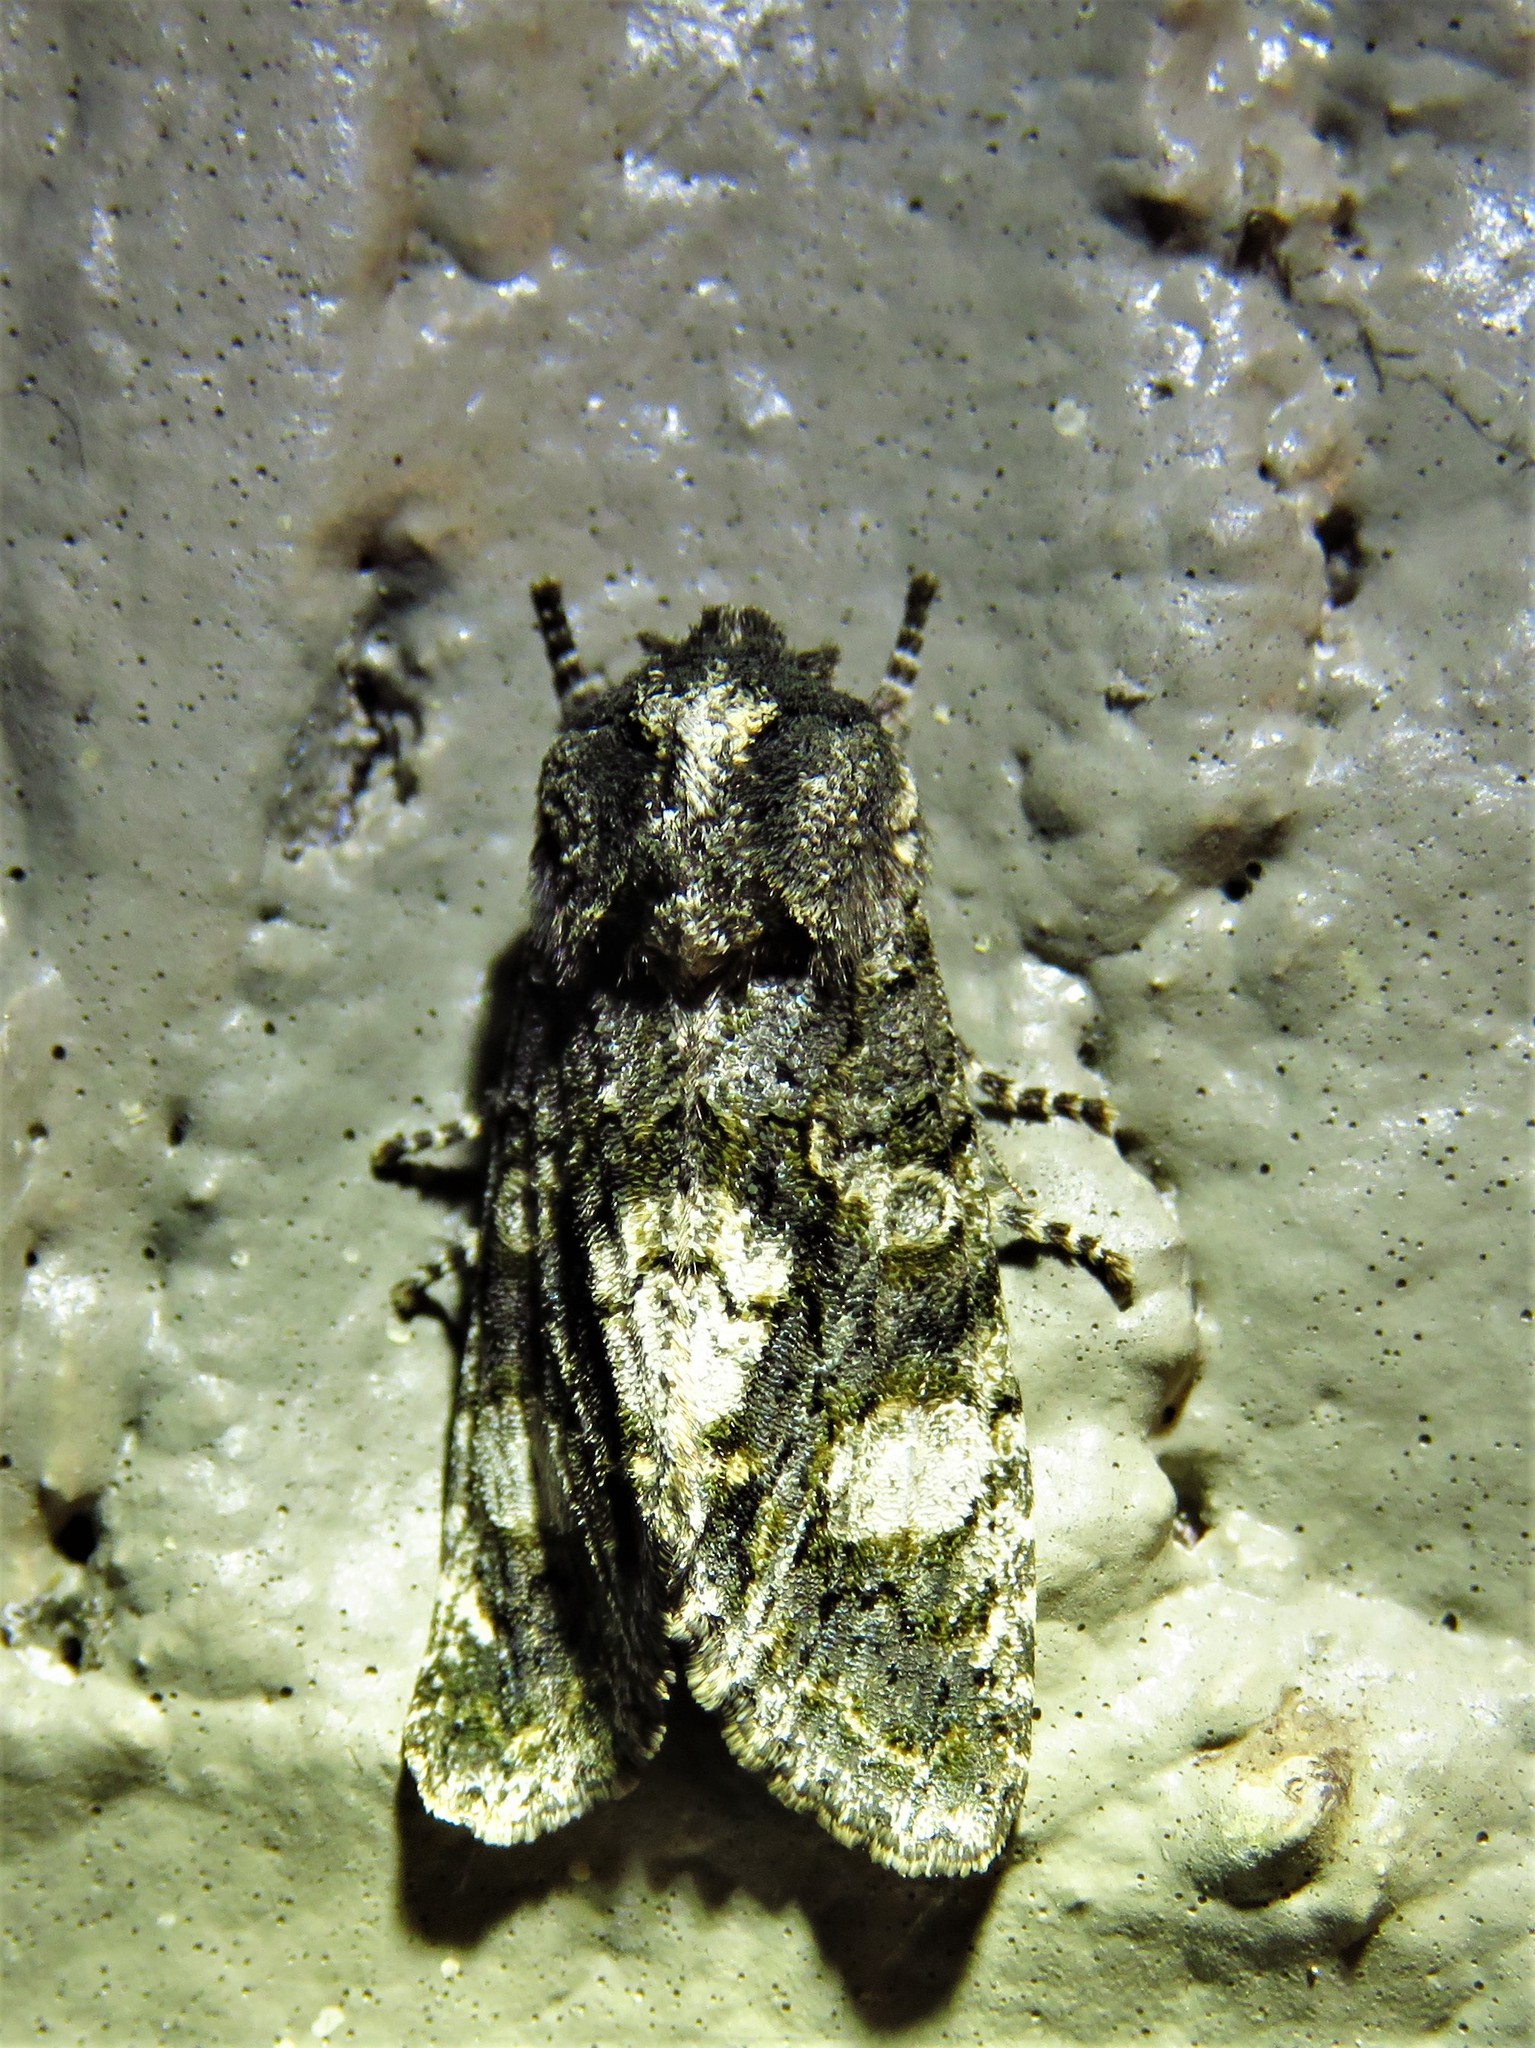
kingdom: Animalia
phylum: Arthropoda
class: Insecta
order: Lepidoptera
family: Noctuidae
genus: Psaphida
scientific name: Psaphida grotei
